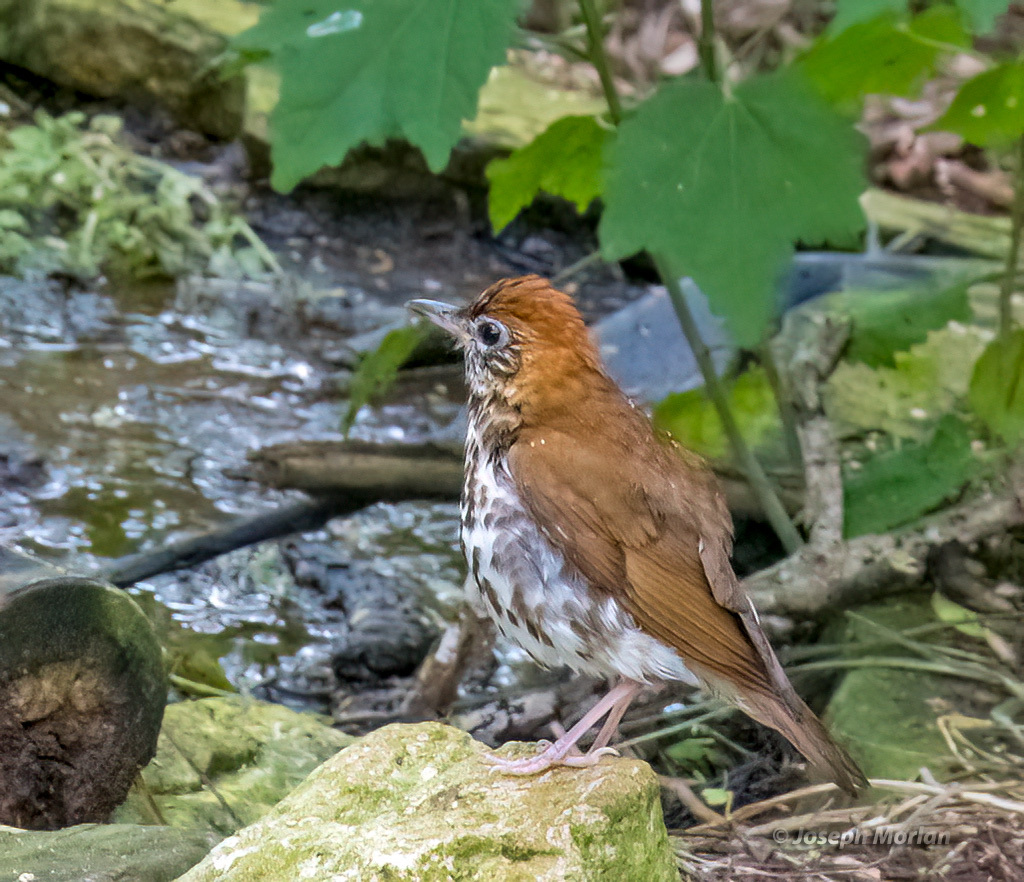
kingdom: Animalia
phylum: Chordata
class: Aves
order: Passeriformes
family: Turdidae
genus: Hylocichla
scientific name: Hylocichla mustelina
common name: Wood thrush
